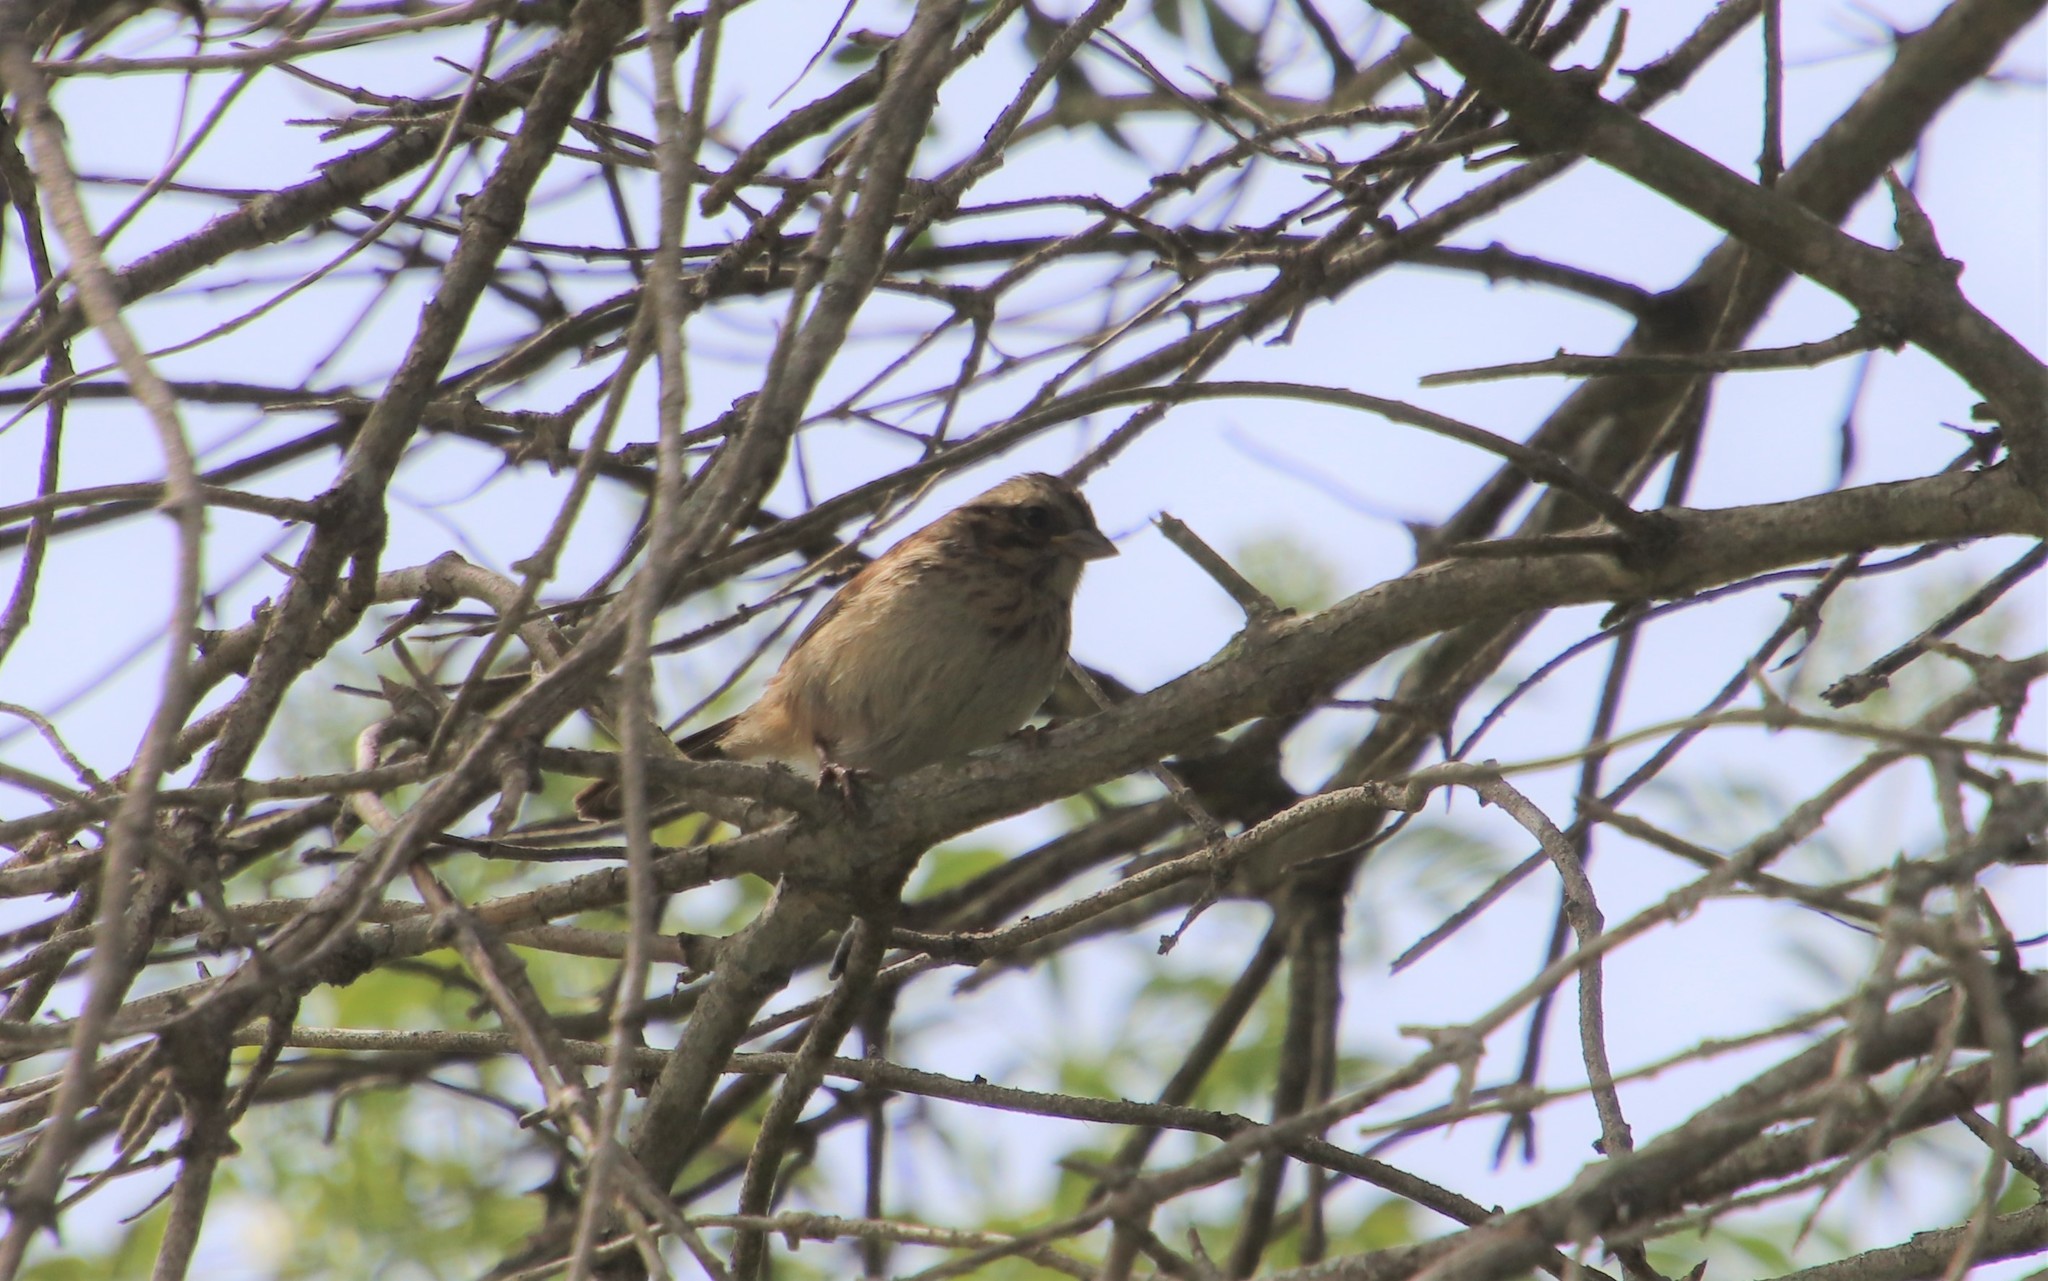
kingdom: Animalia
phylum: Chordata
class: Aves
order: Passeriformes
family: Passerellidae
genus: Melospiza
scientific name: Melospiza melodia
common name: Song sparrow
